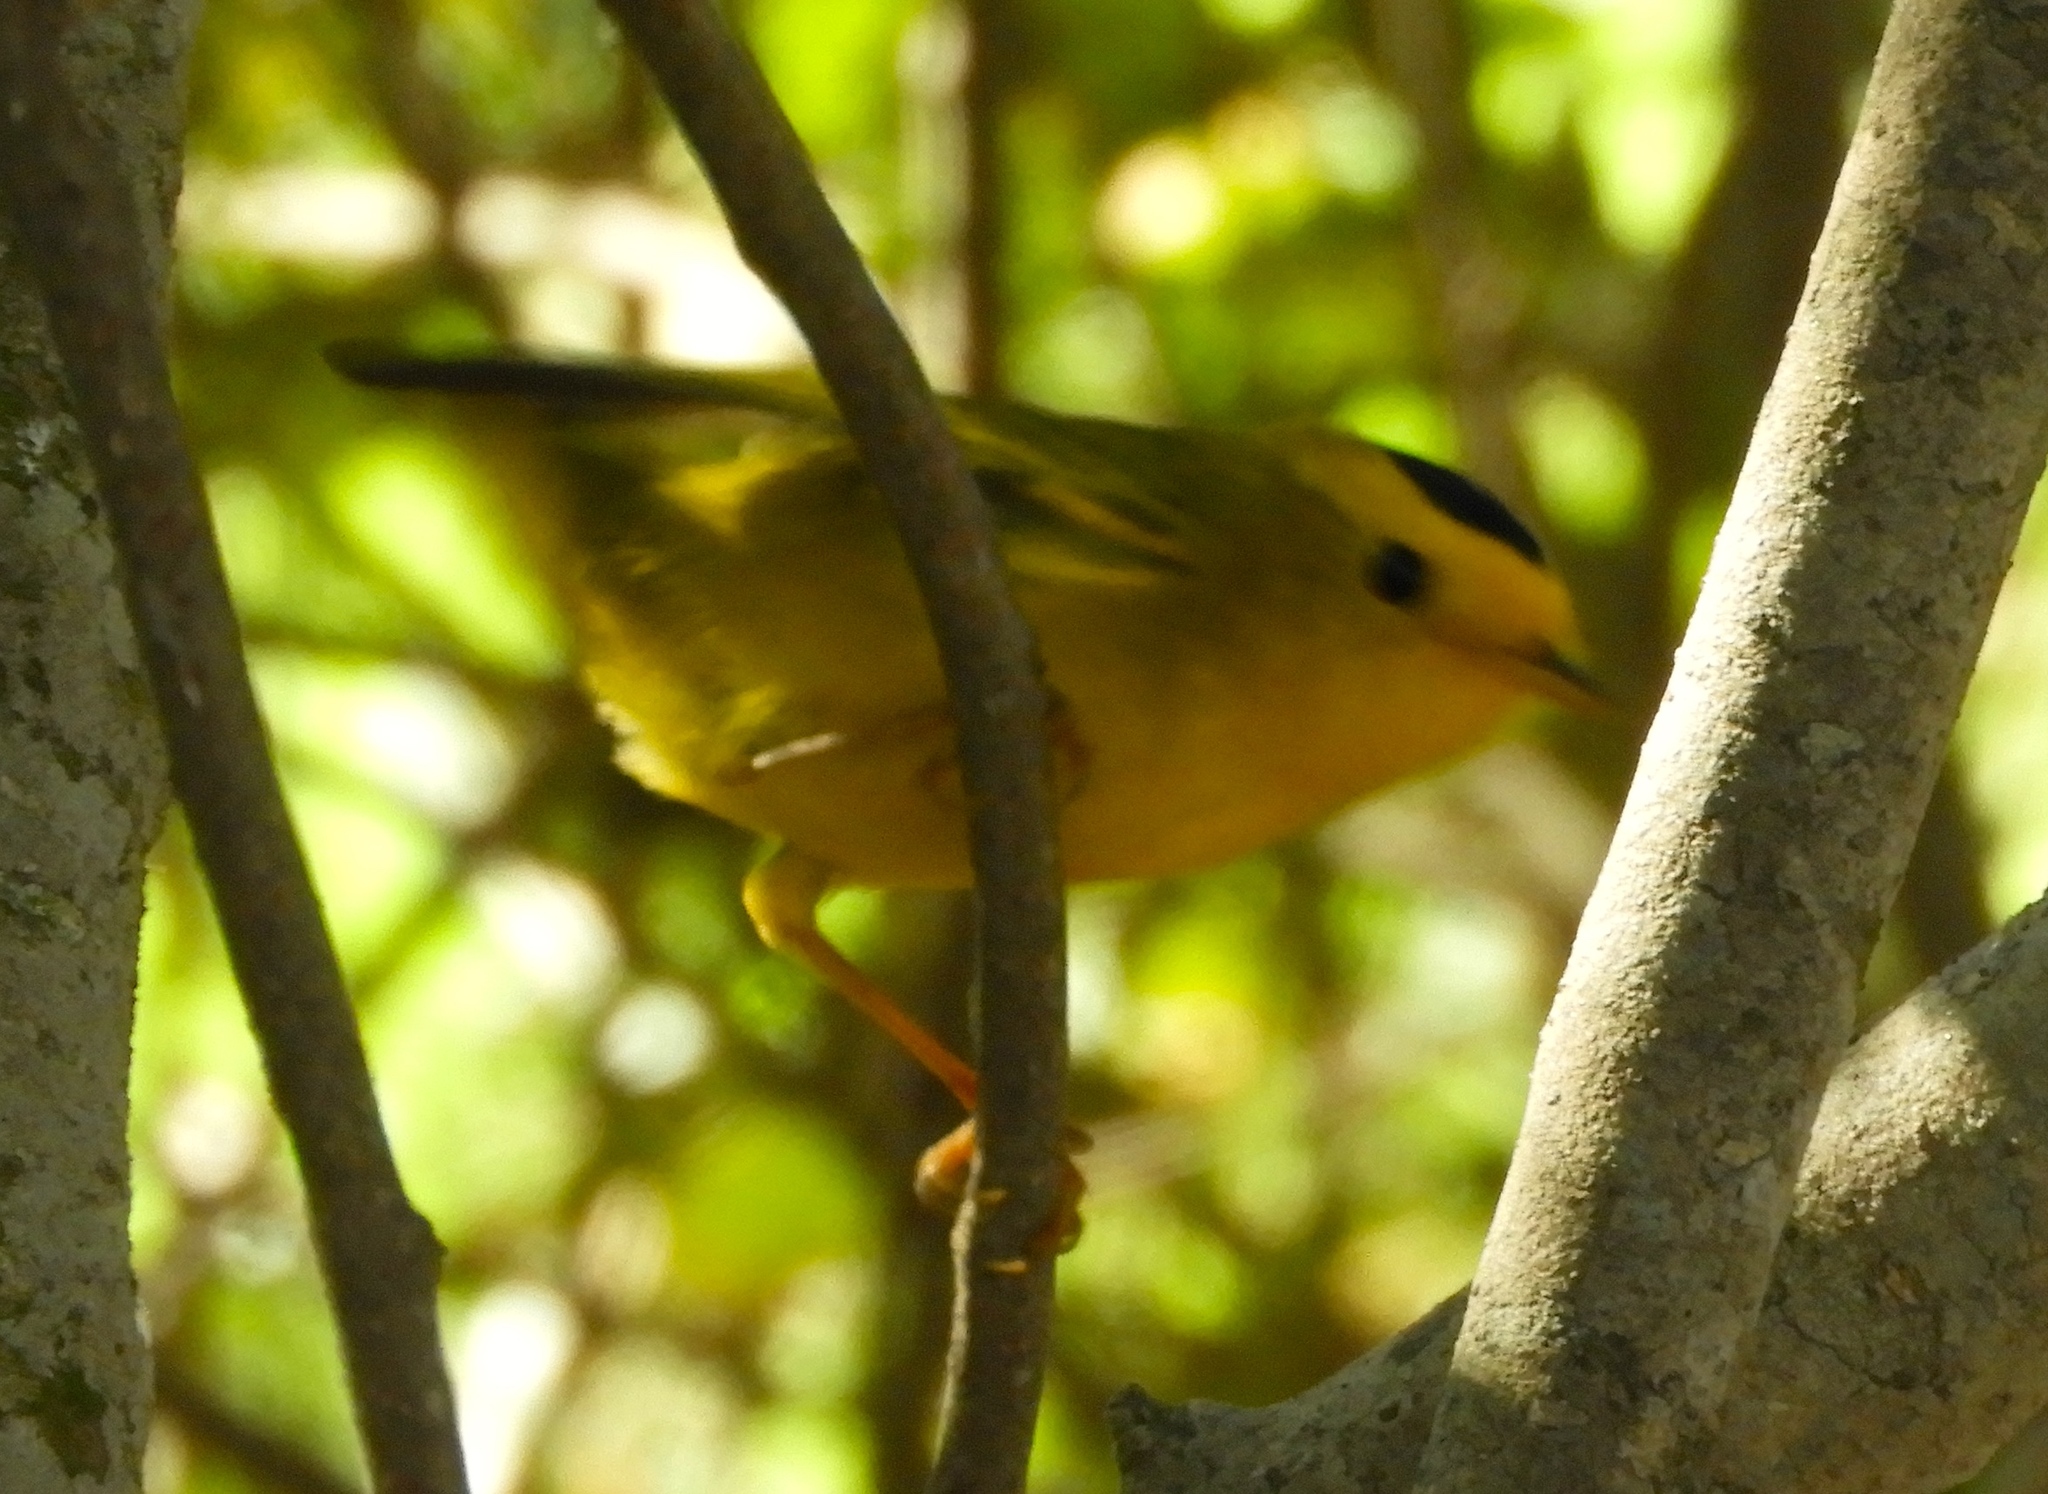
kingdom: Animalia
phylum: Chordata
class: Aves
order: Passeriformes
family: Parulidae
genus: Cardellina
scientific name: Cardellina pusilla
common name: Wilson's warbler
